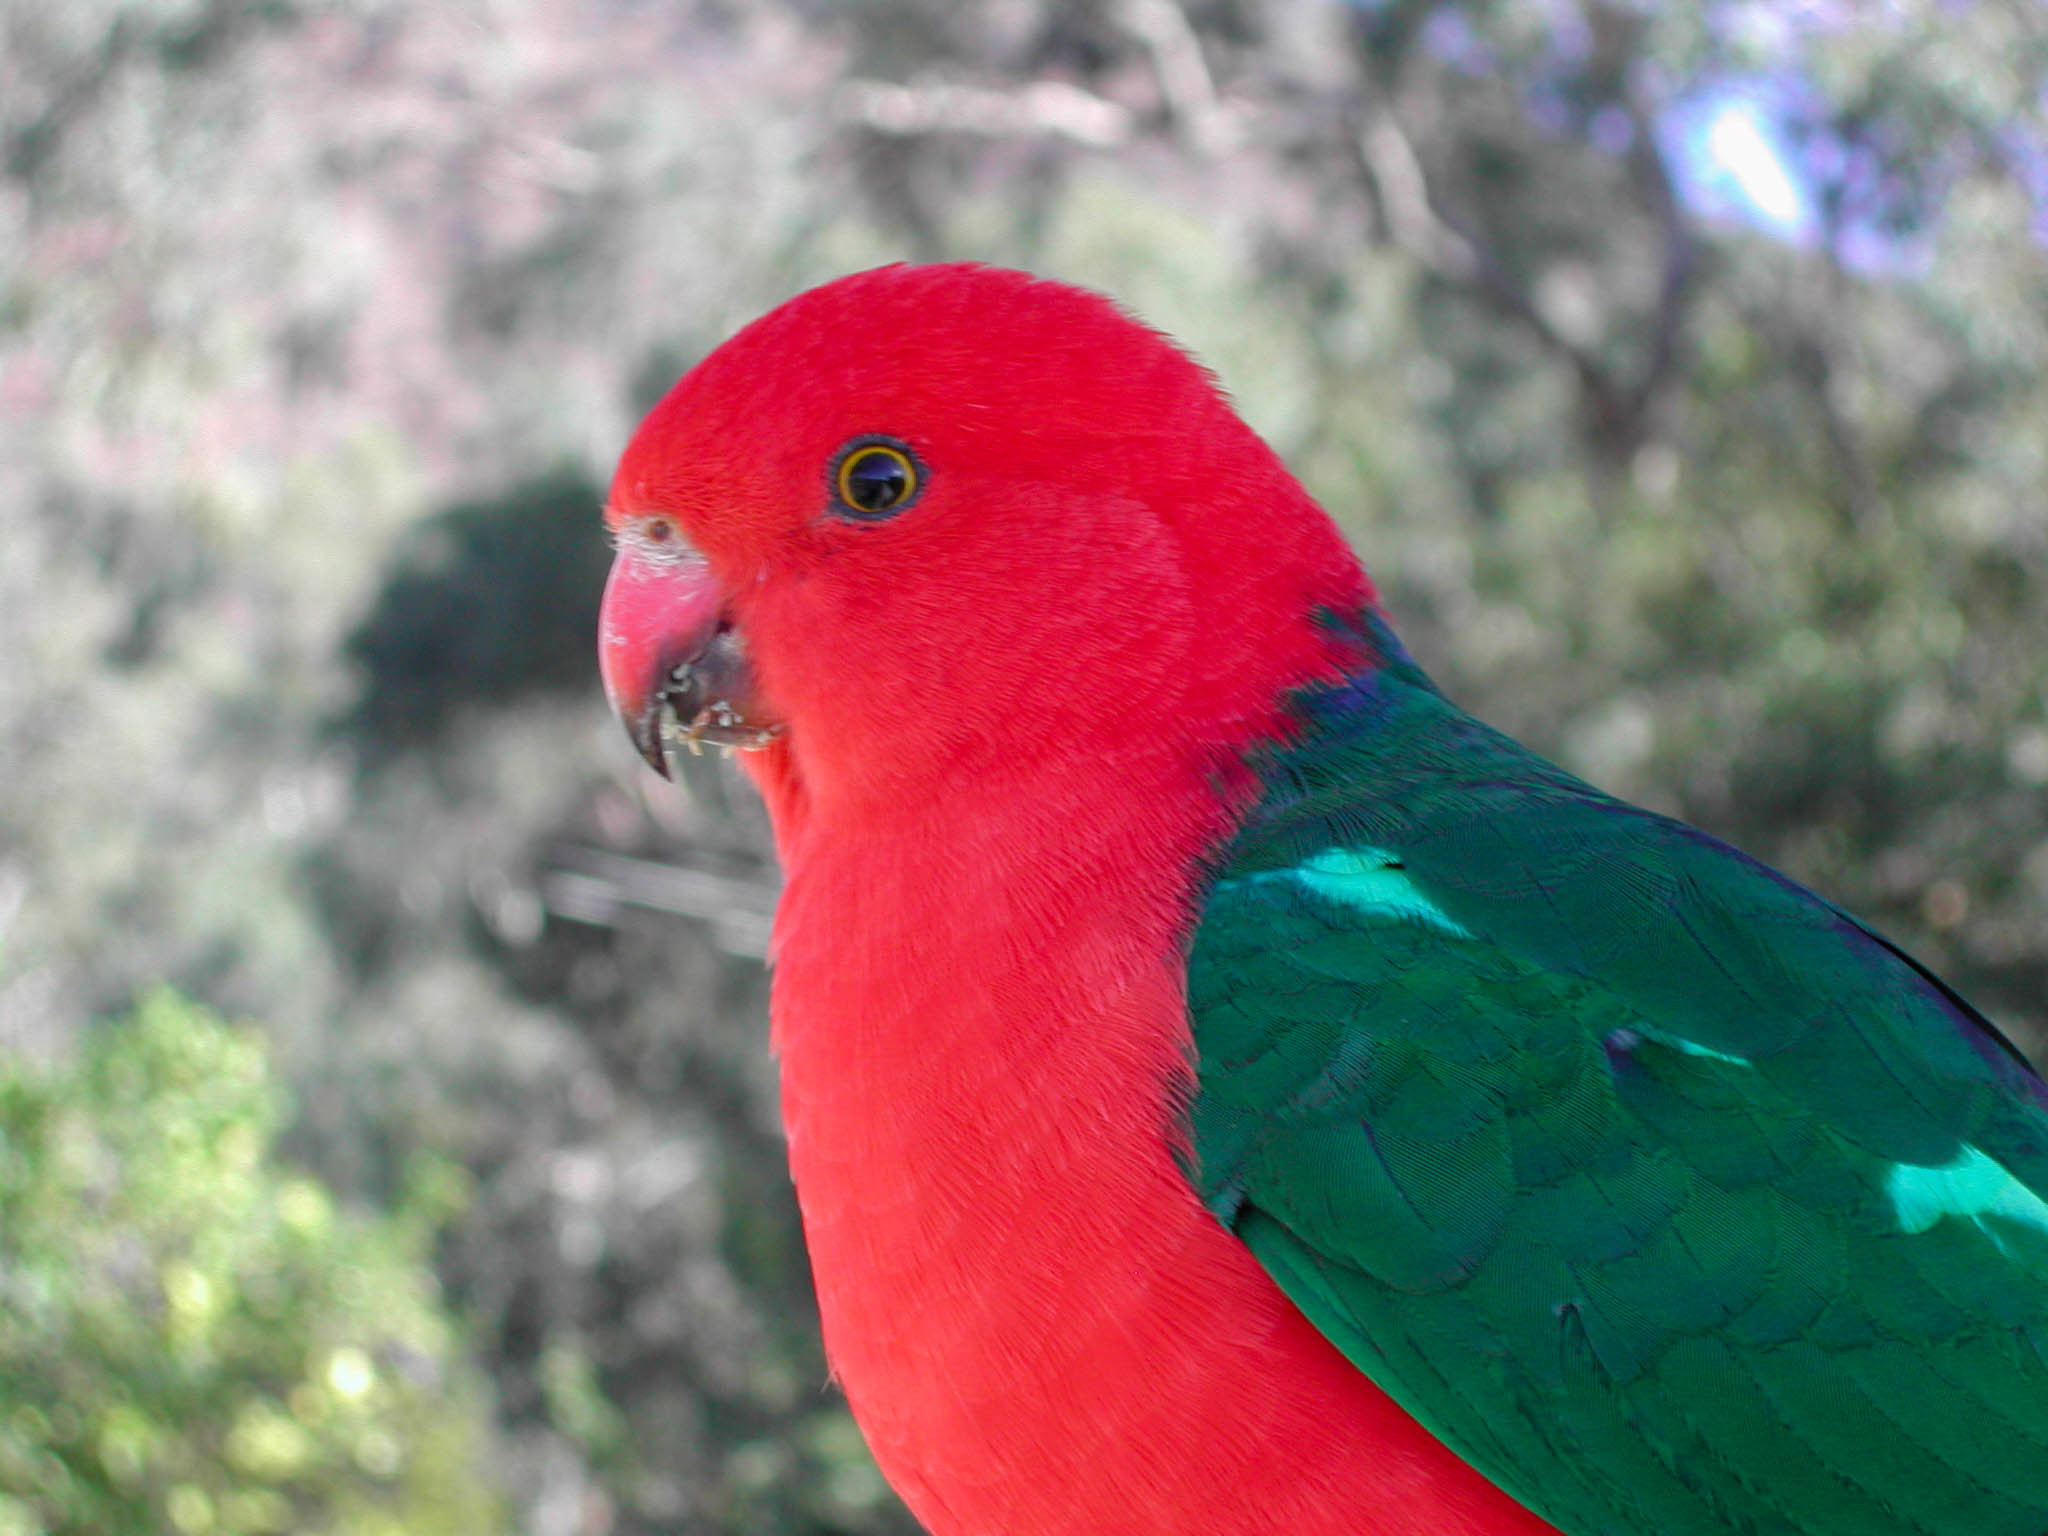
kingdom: Animalia
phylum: Chordata
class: Aves
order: Psittaciformes
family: Psittacidae
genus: Alisterus
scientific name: Alisterus scapularis
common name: Australian king parrot
